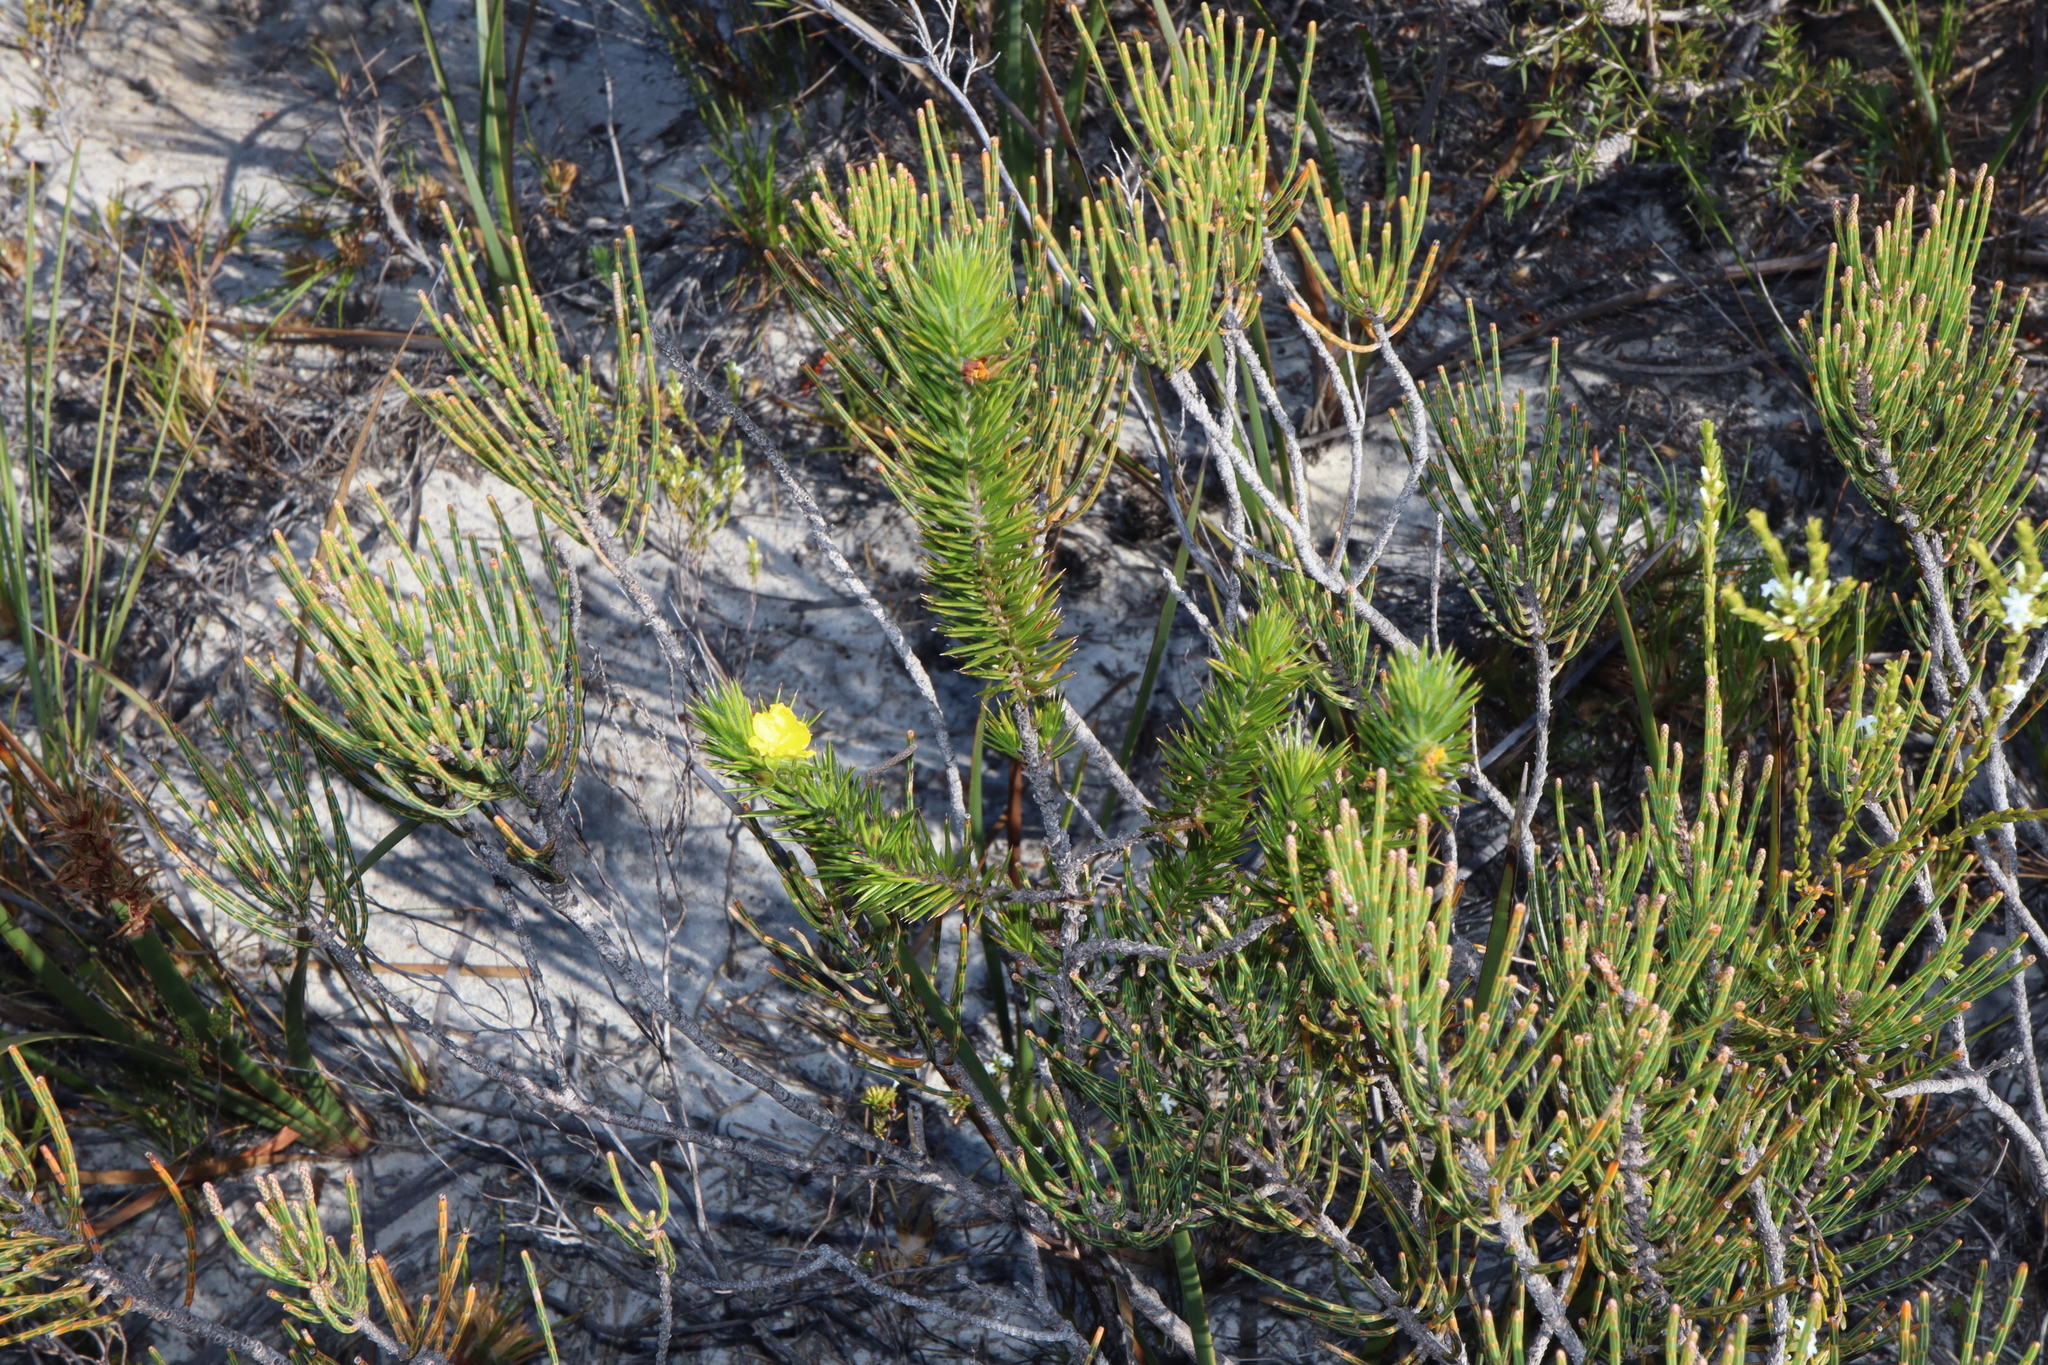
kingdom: Plantae
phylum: Tracheophyta
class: Magnoliopsida
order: Dilleniales
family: Dilleniaceae
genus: Hibbertia
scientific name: Hibbertia mucronata
